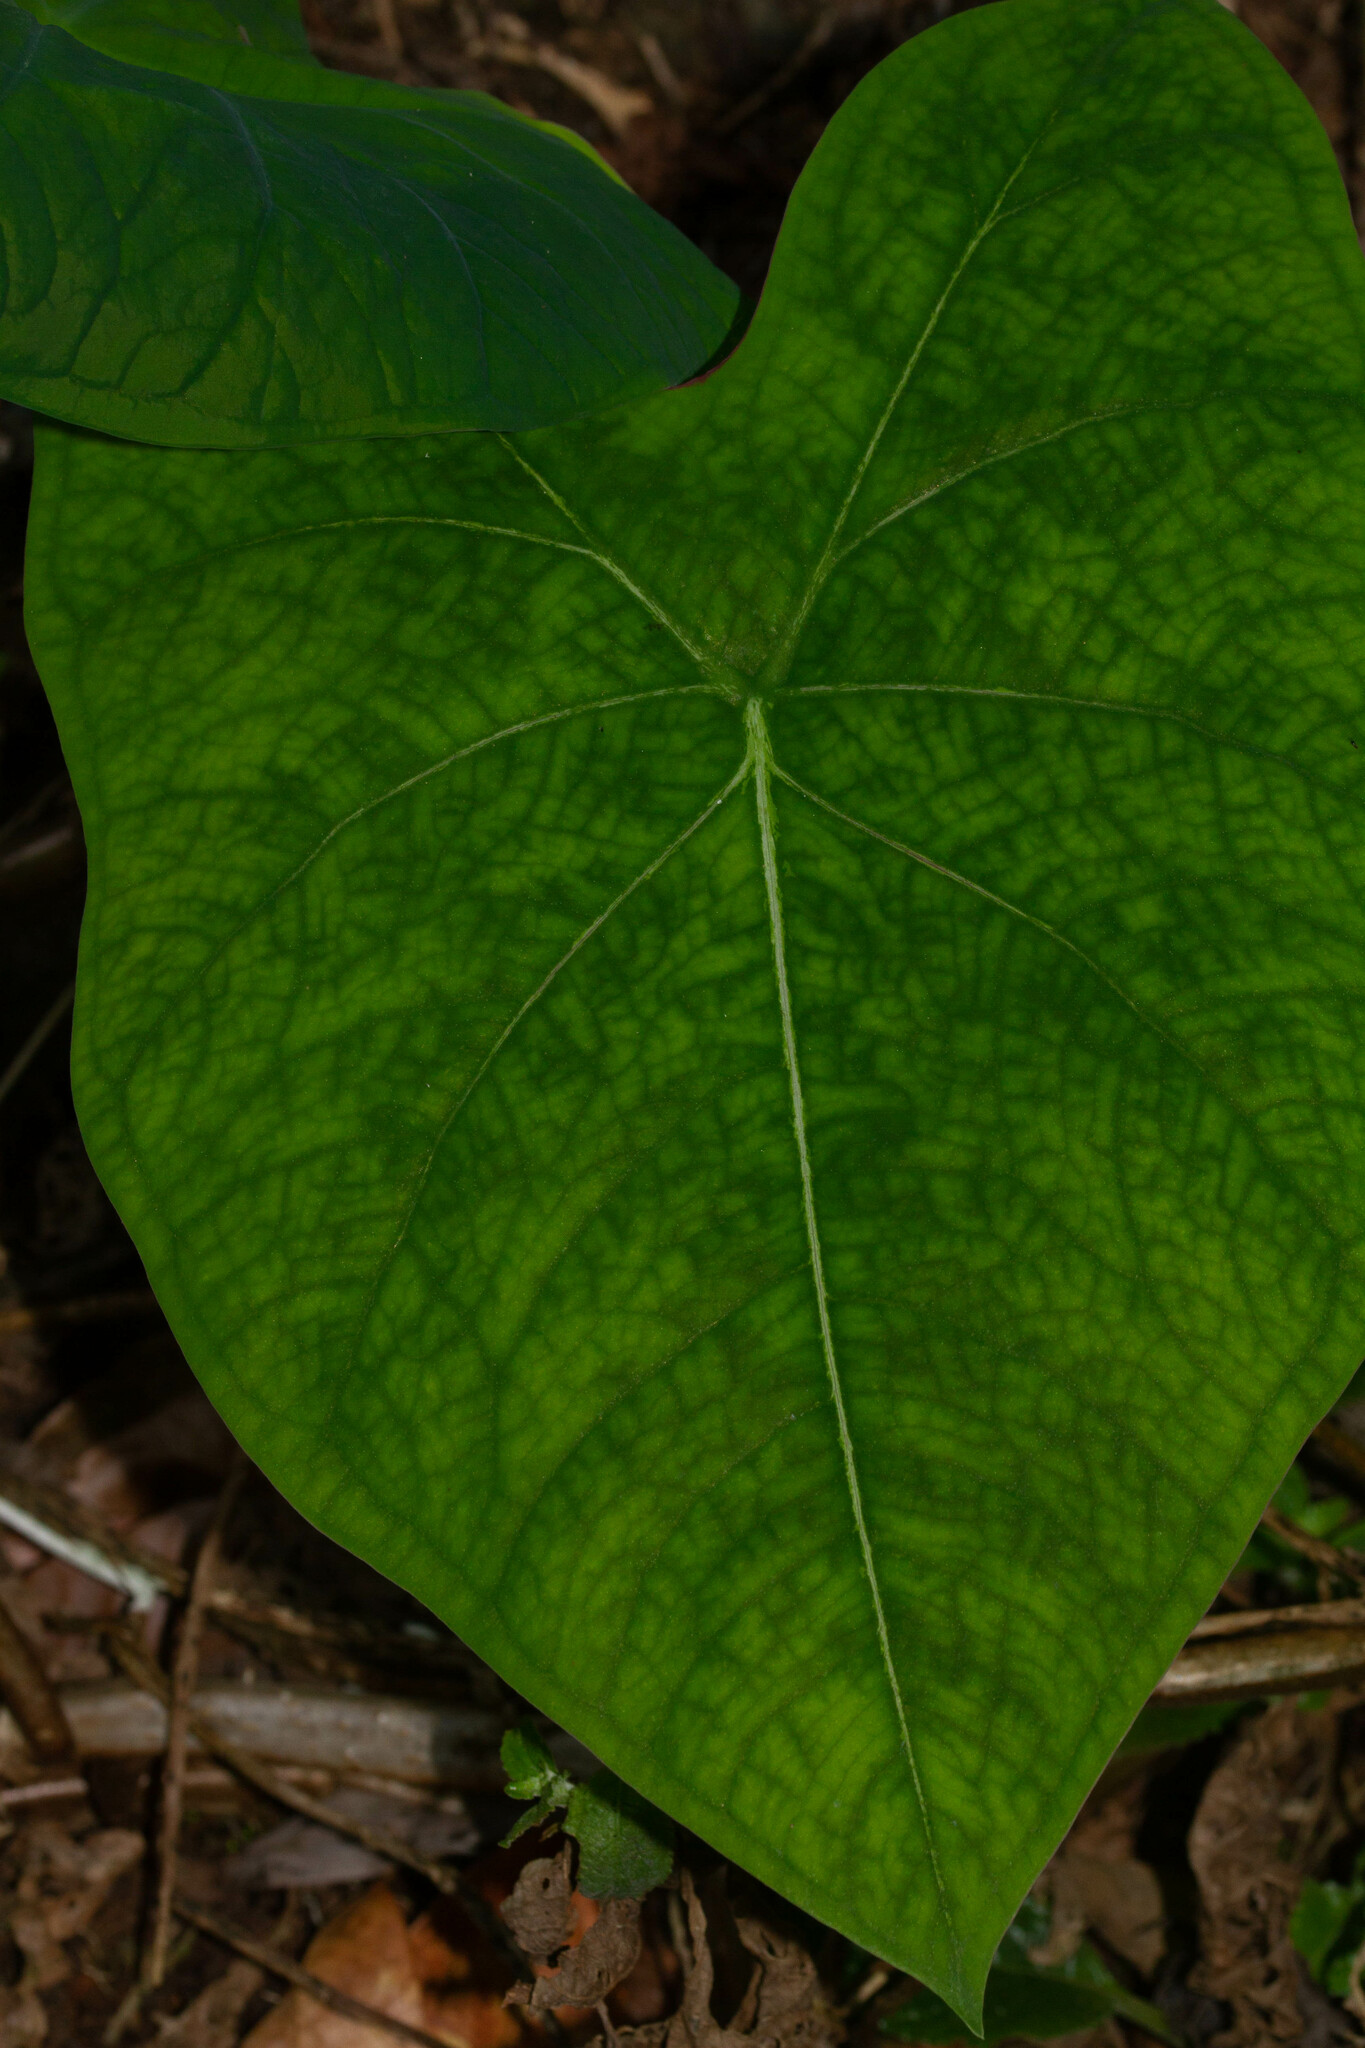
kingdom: Plantae
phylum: Tracheophyta
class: Liliopsida
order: Alismatales
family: Araceae
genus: Caladium
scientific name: Caladium bicolor
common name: Artist's pallet
